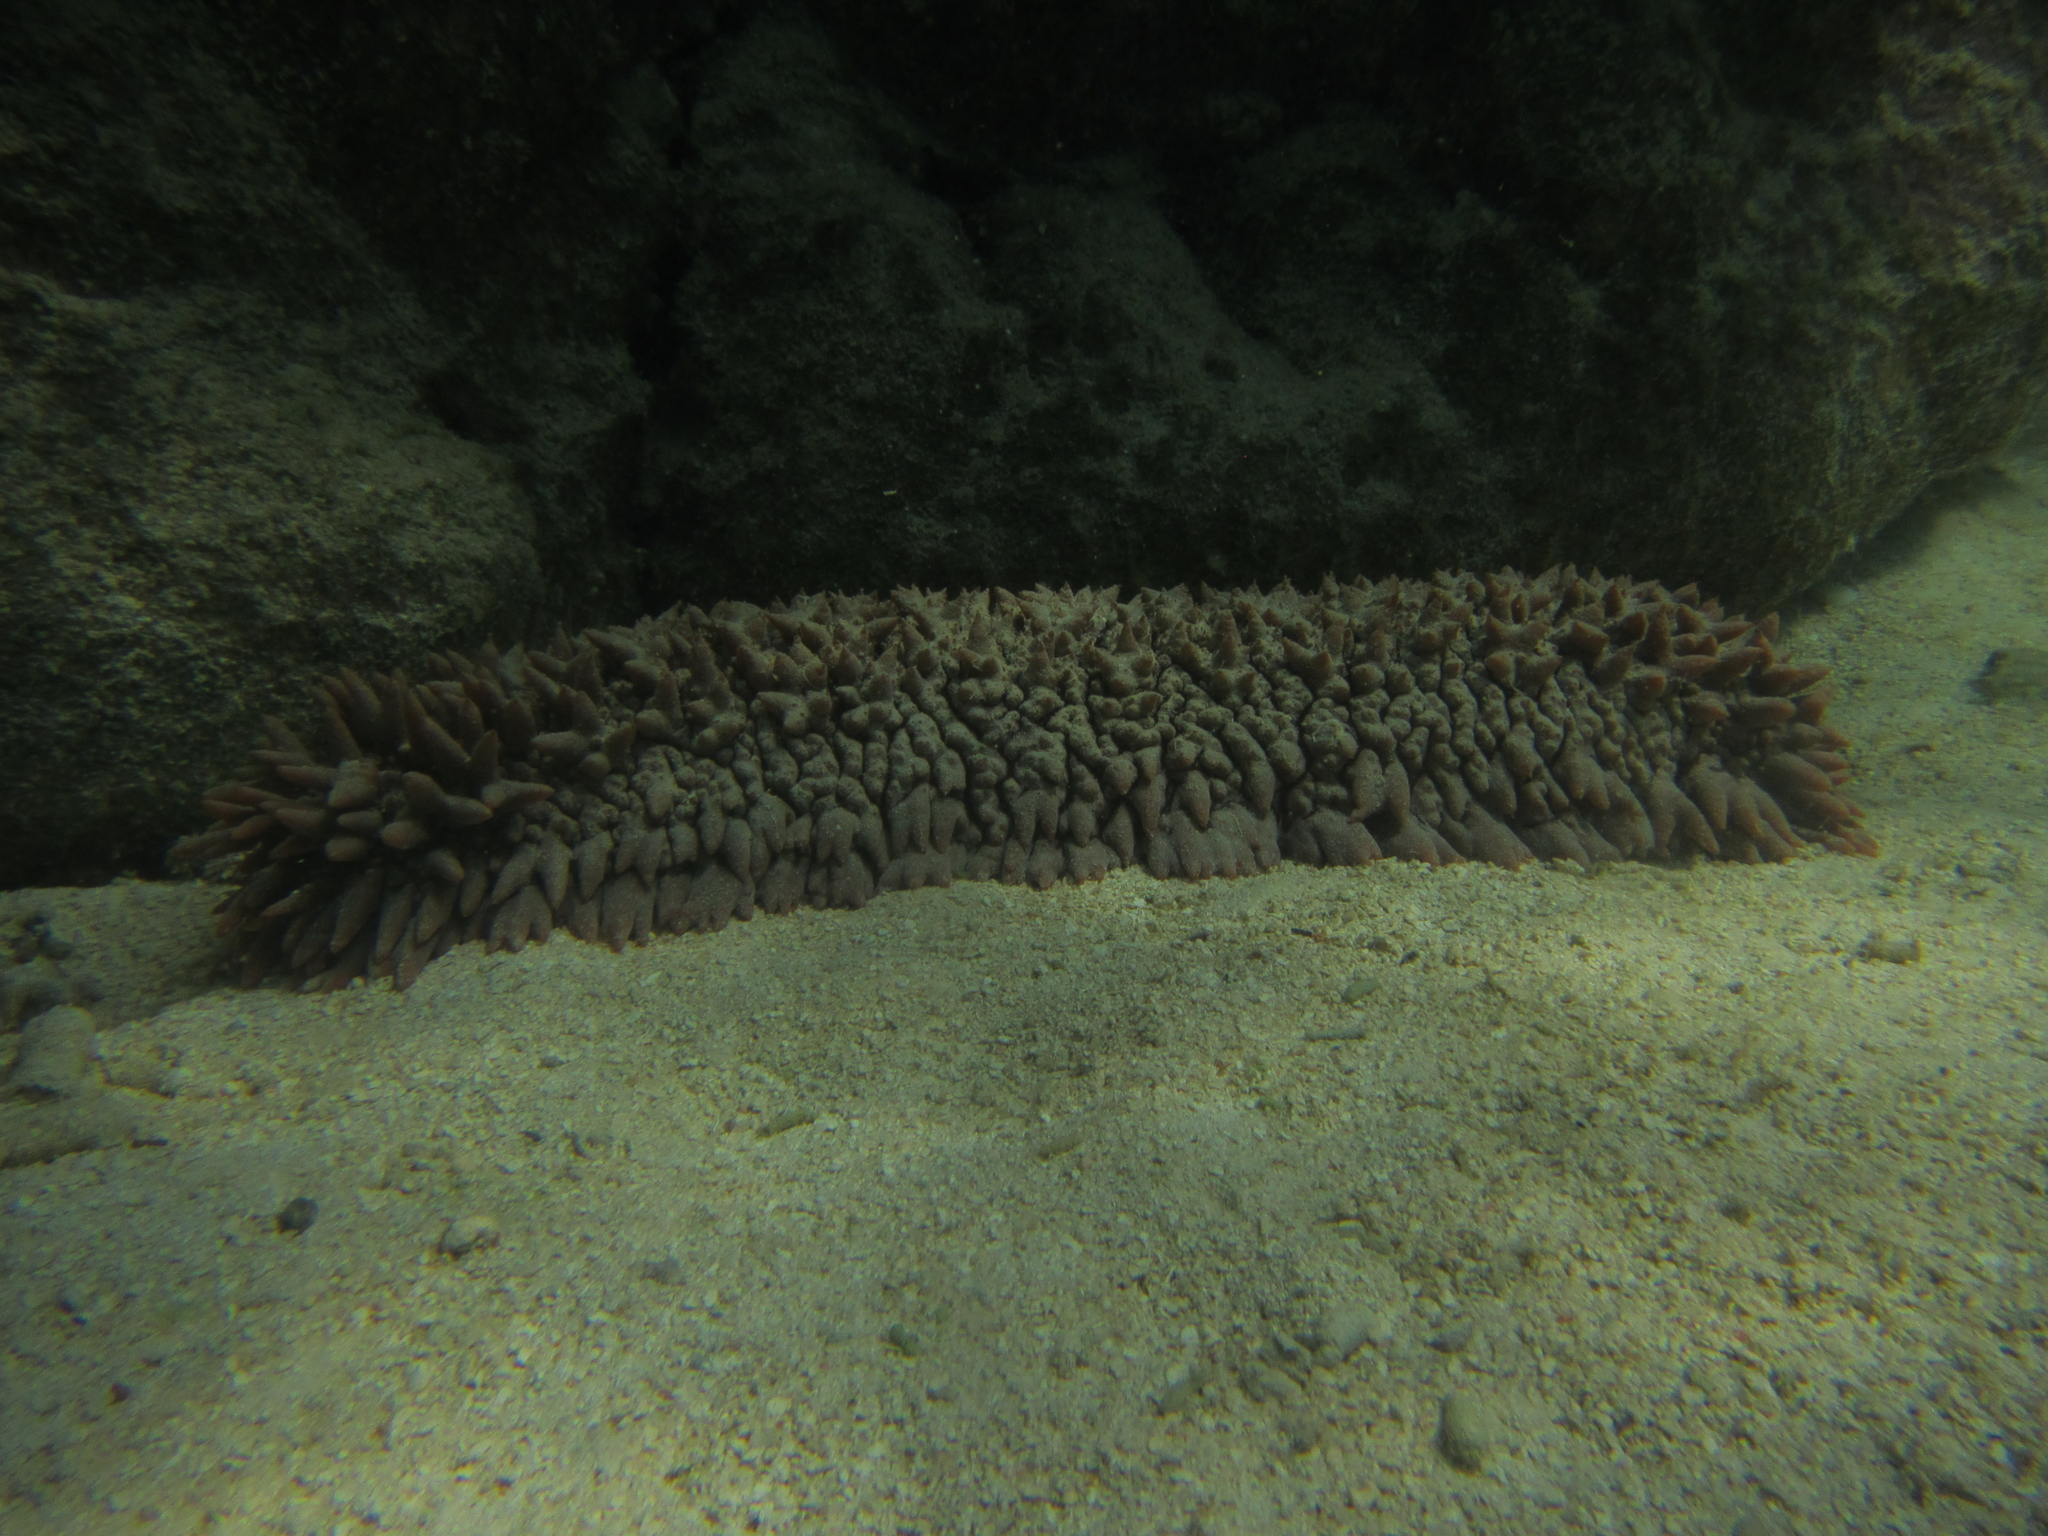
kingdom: Animalia
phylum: Echinodermata
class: Holothuroidea
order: Synallactida
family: Stichopodidae
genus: Thelenota
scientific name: Thelenota ananas
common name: Prickly redfish
